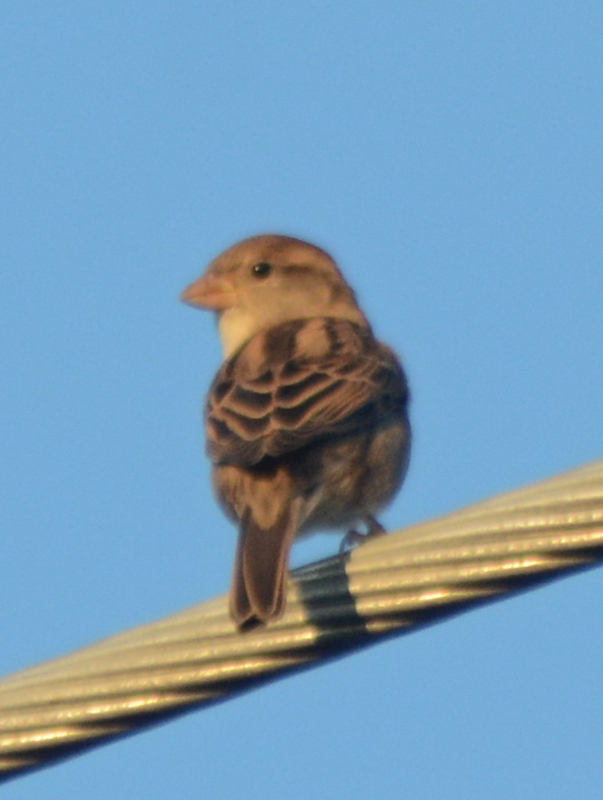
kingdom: Animalia
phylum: Chordata
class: Aves
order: Passeriformes
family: Passeridae
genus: Passer
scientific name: Passer domesticus
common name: House sparrow
